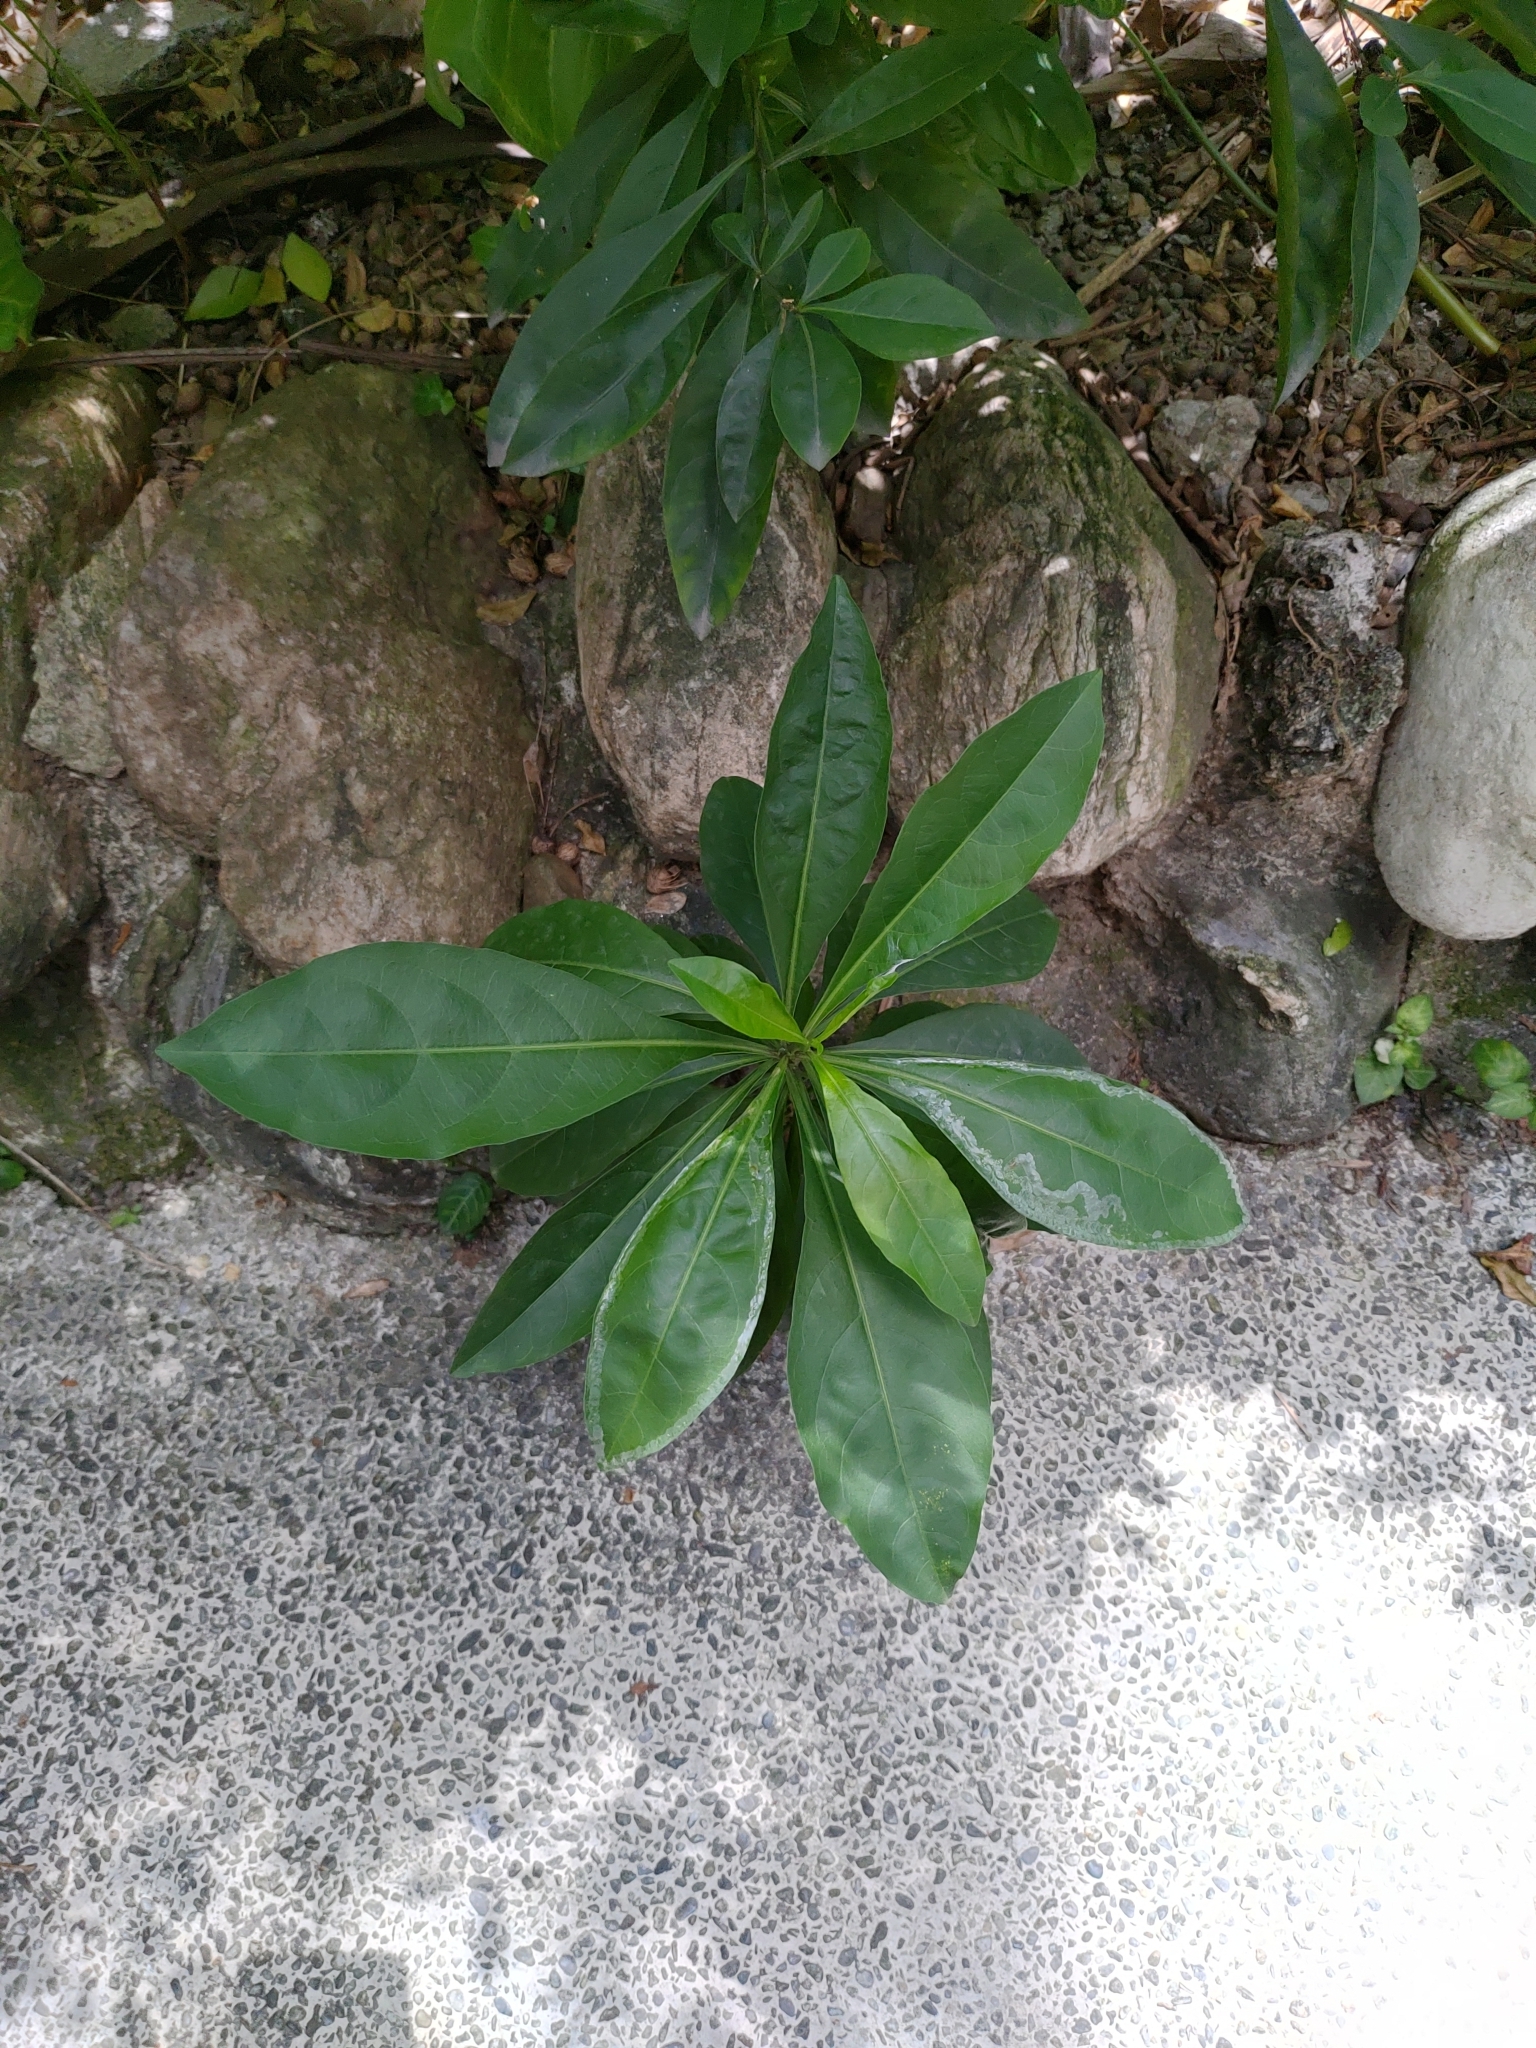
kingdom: Plantae
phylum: Tracheophyta
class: Magnoliopsida
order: Solanales
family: Solanaceae
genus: Solanum
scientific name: Solanum diphyllum
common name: Twoleaf nightshade
